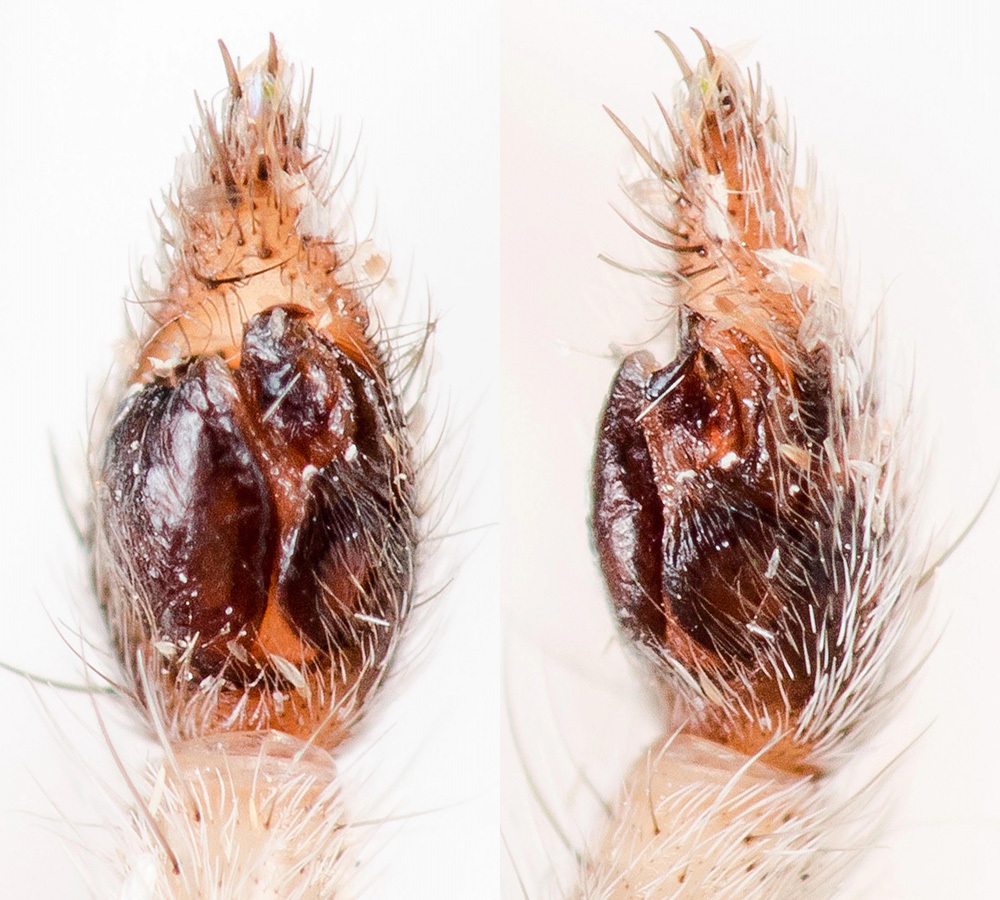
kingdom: Animalia
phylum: Arthropoda
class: Arachnida
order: Araneae
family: Lycosidae
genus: Evippa
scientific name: Evippa sjostedti
